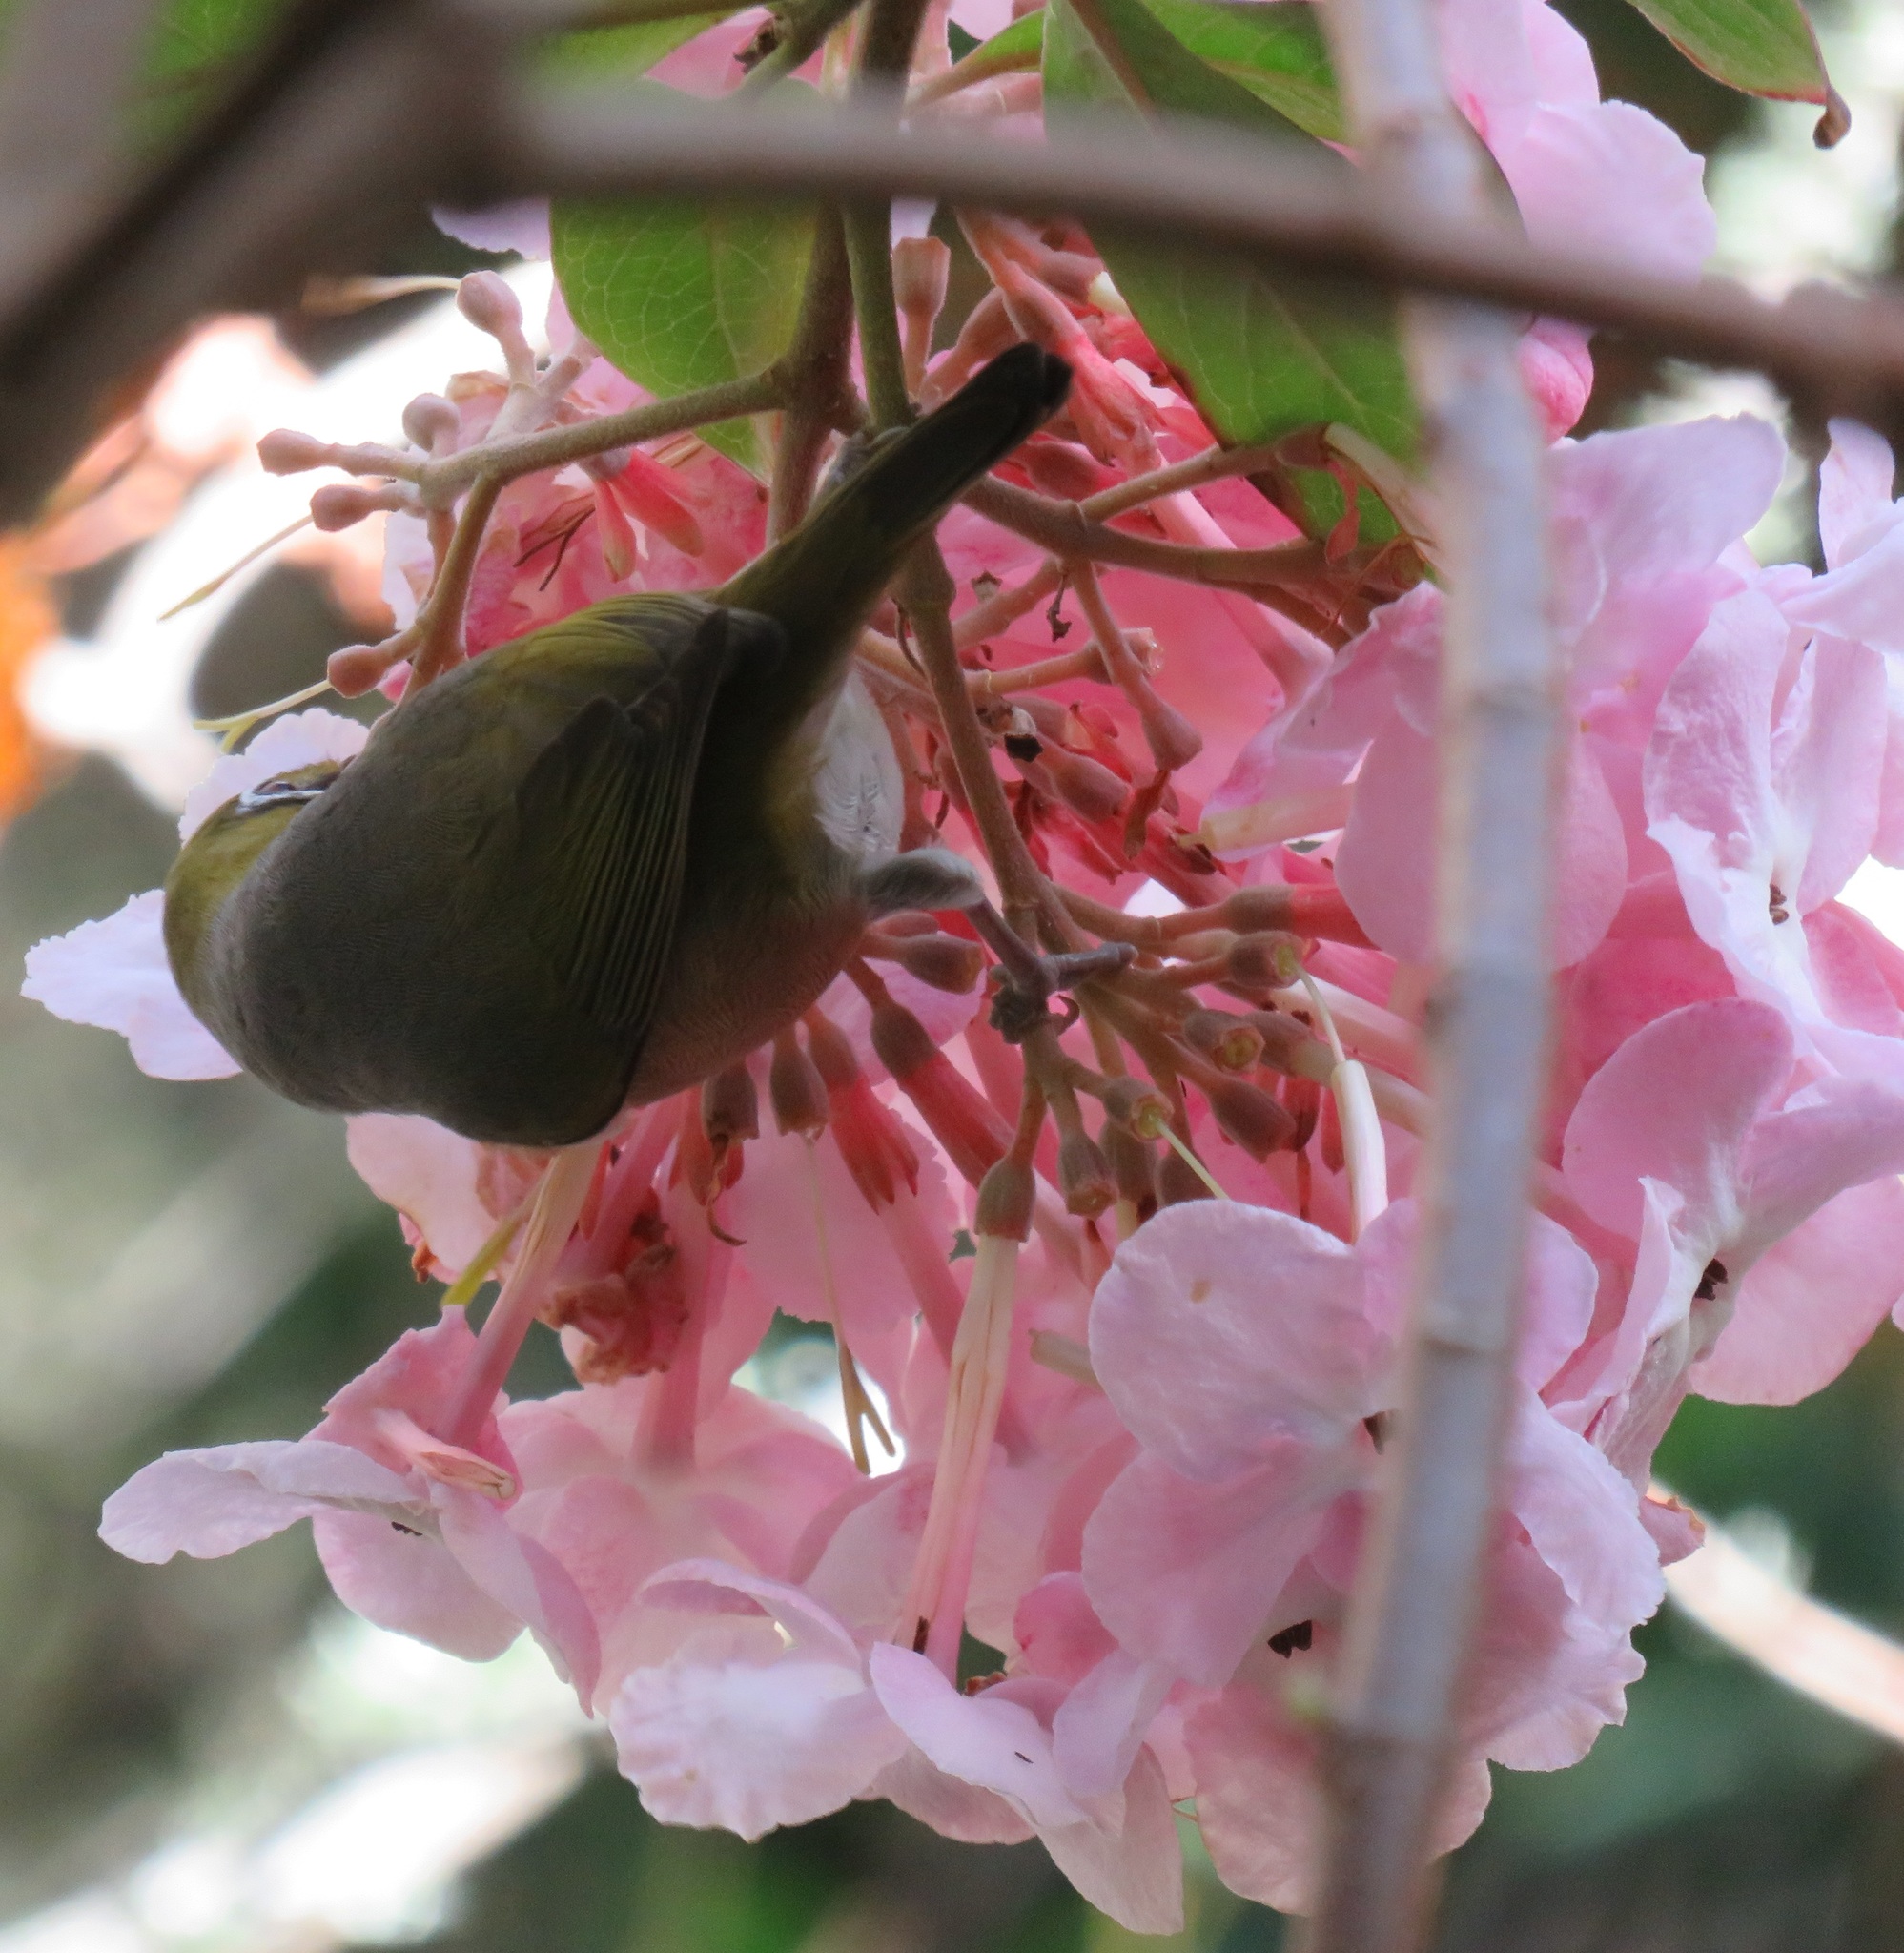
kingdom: Animalia
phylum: Chordata
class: Aves
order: Passeriformes
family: Zosteropidae
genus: Zosterops
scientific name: Zosterops lateralis
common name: Silvereye
